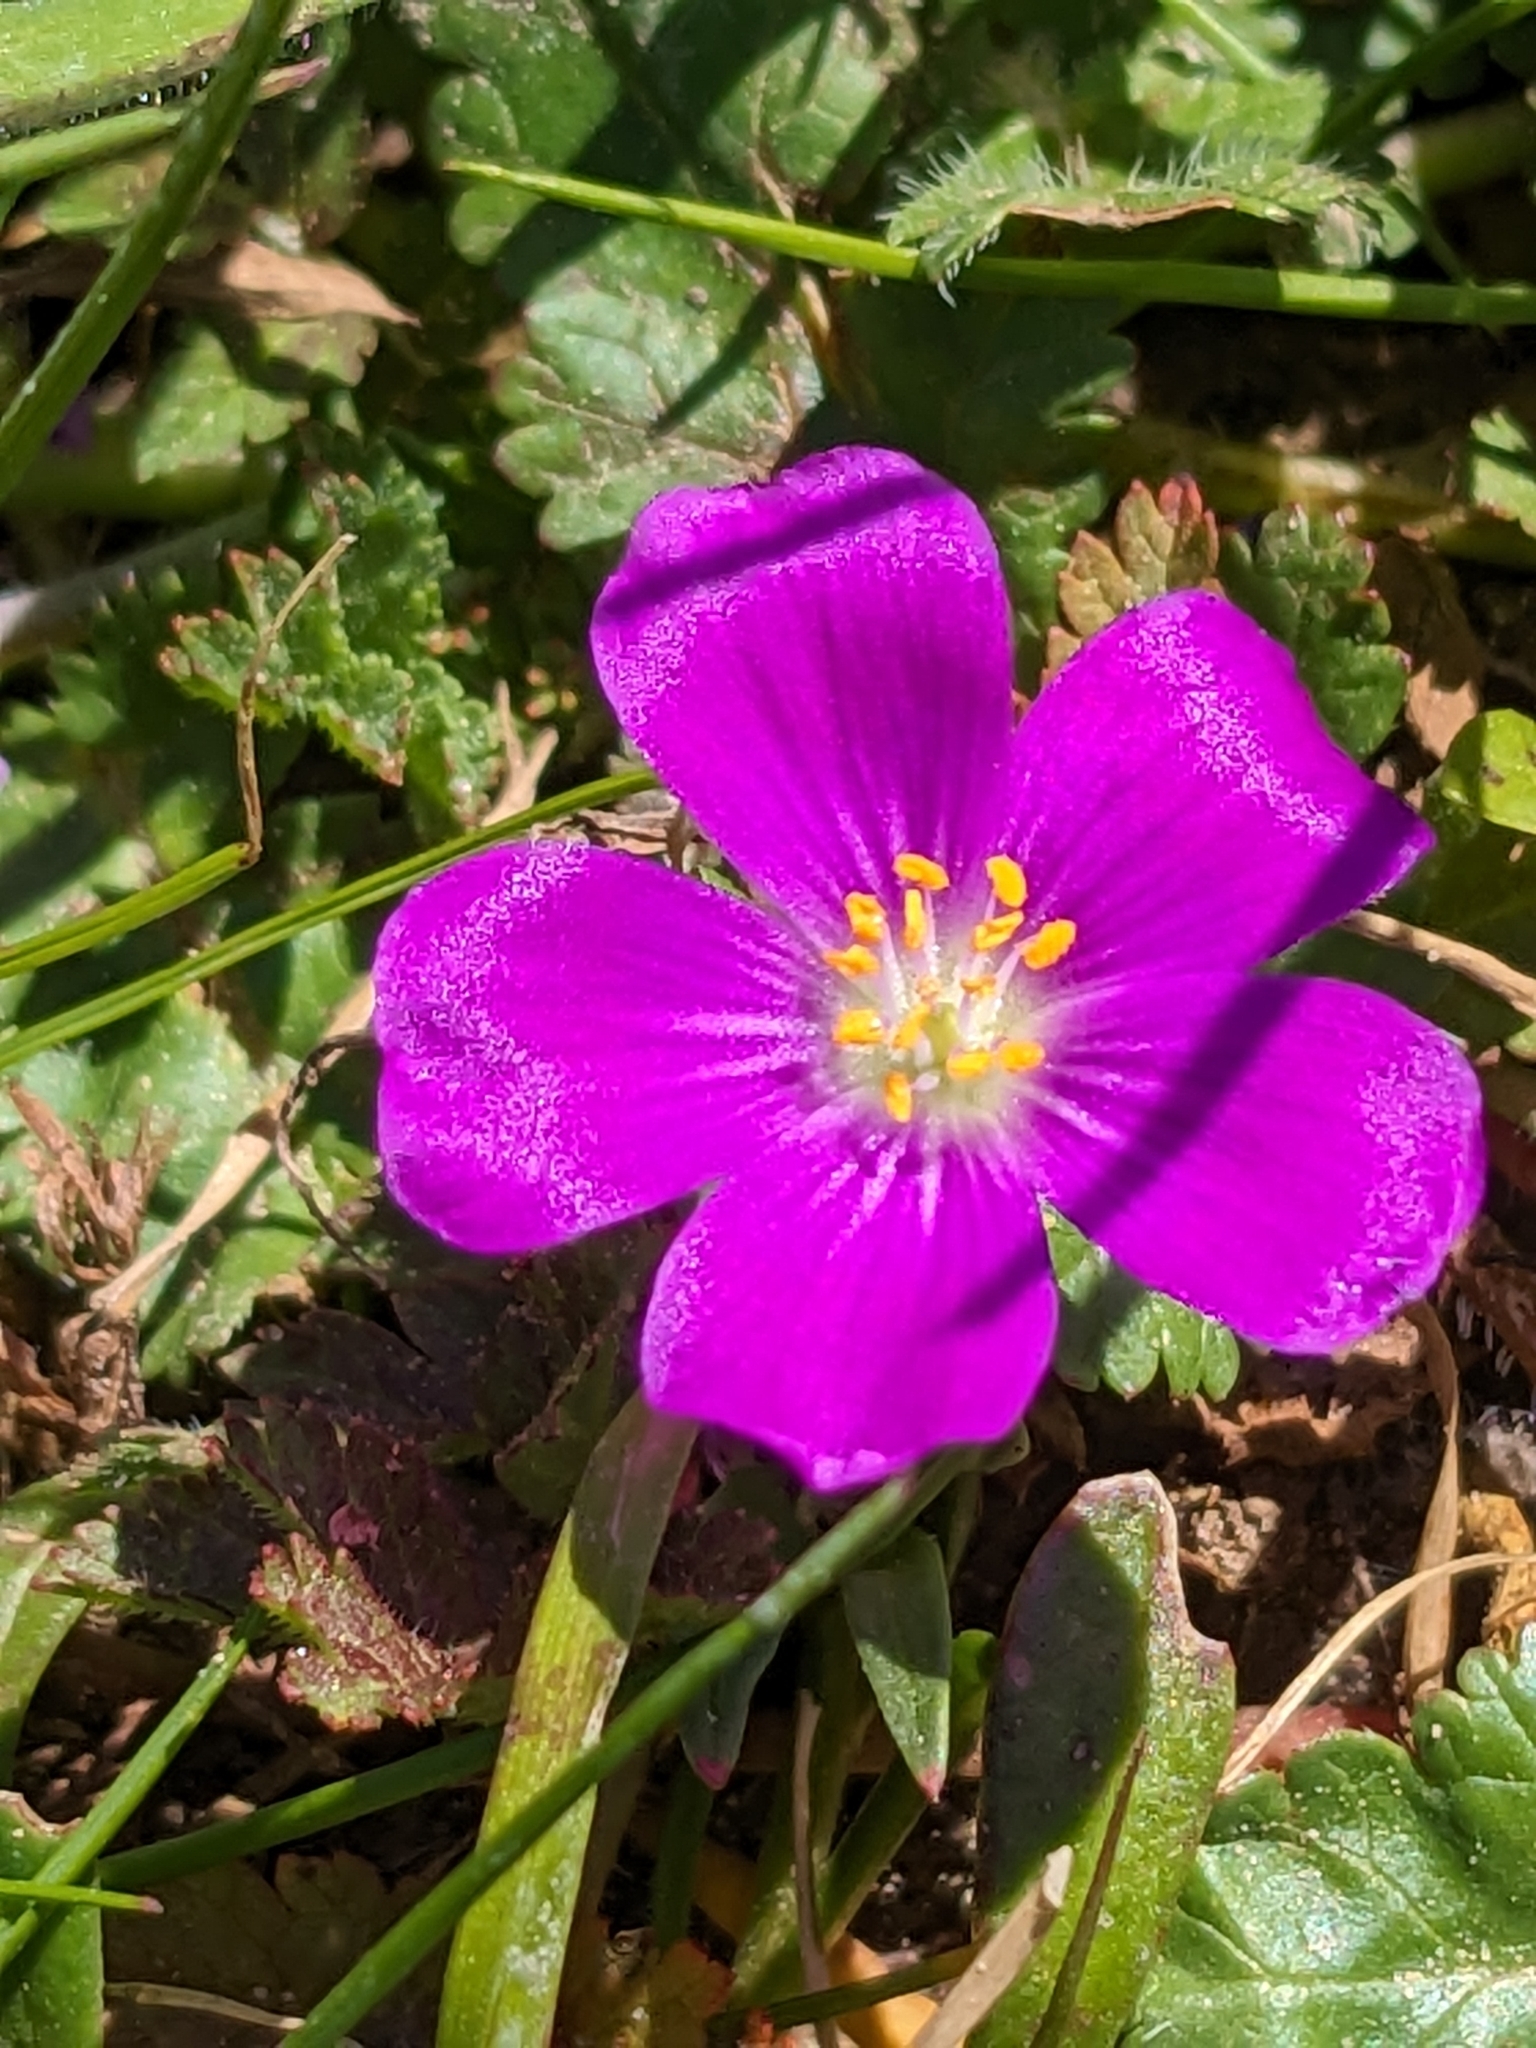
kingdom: Plantae
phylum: Tracheophyta
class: Magnoliopsida
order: Caryophyllales
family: Montiaceae
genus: Calandrinia
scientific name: Calandrinia menziesii
